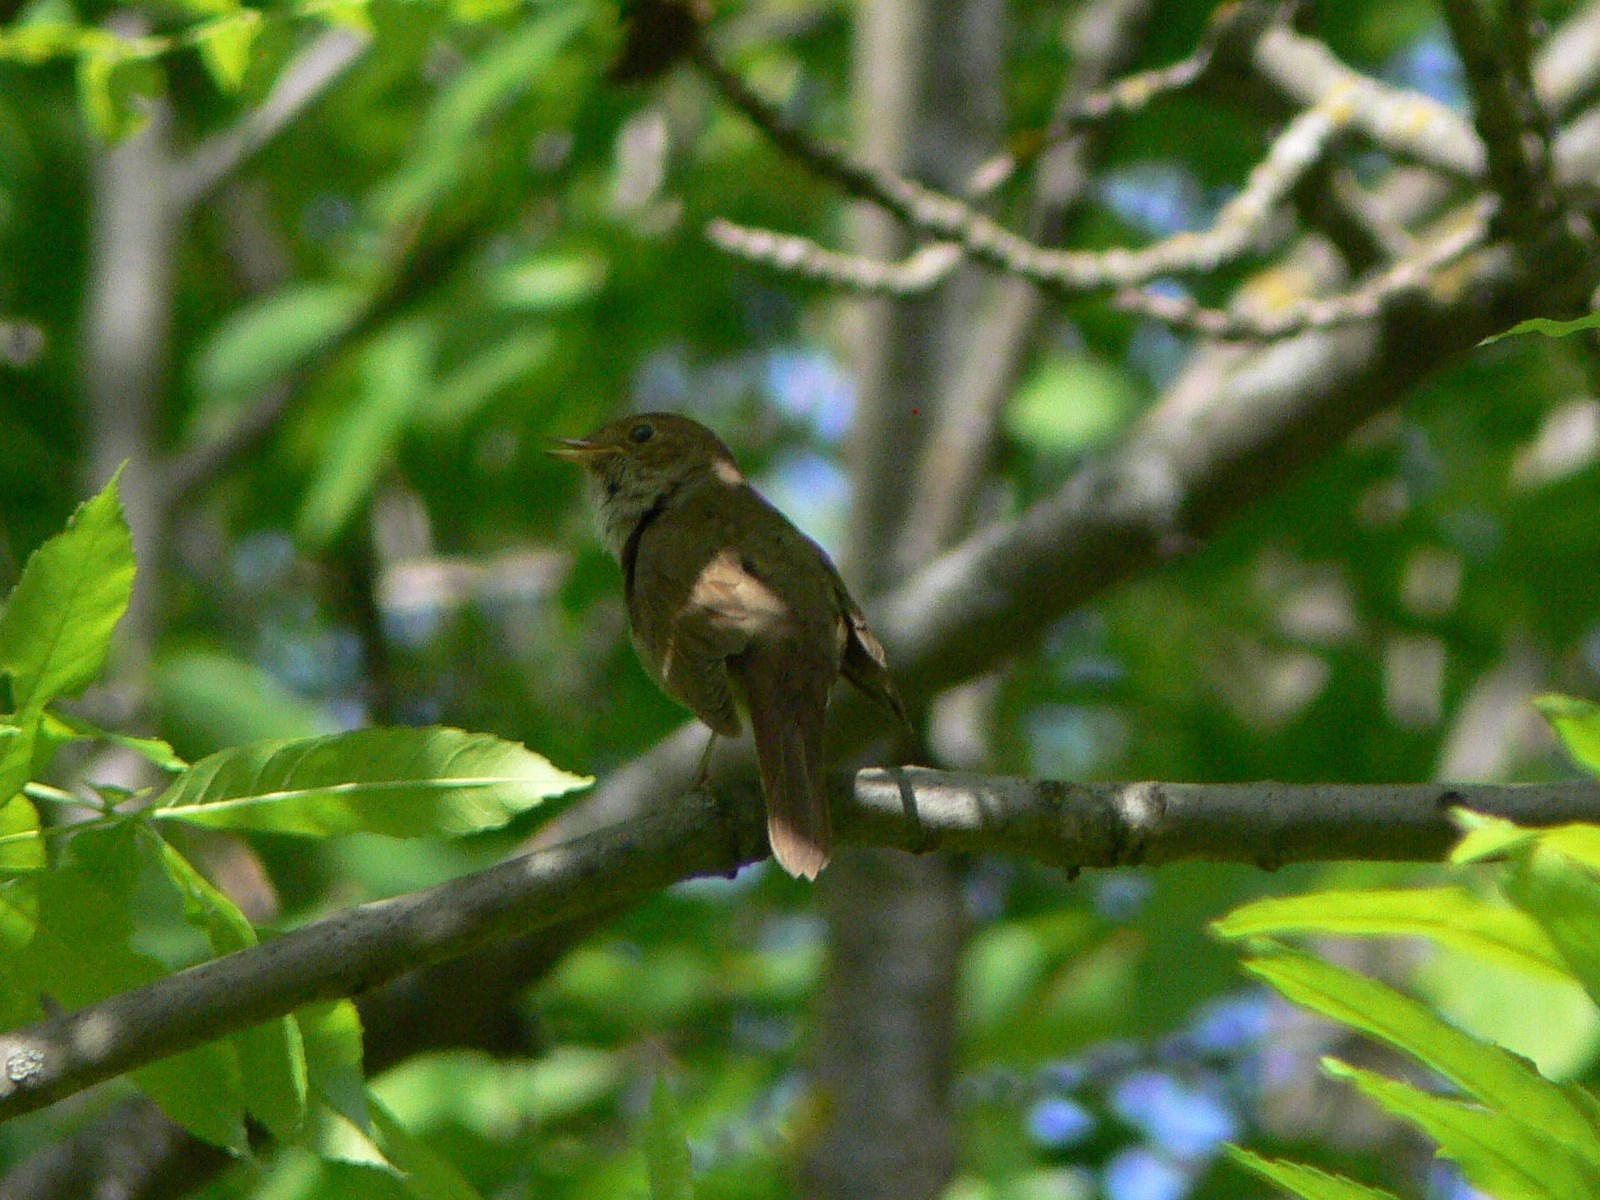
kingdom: Animalia
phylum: Chordata
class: Aves
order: Passeriformes
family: Muscicapidae
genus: Luscinia
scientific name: Luscinia luscinia
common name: Thrush nightingale
